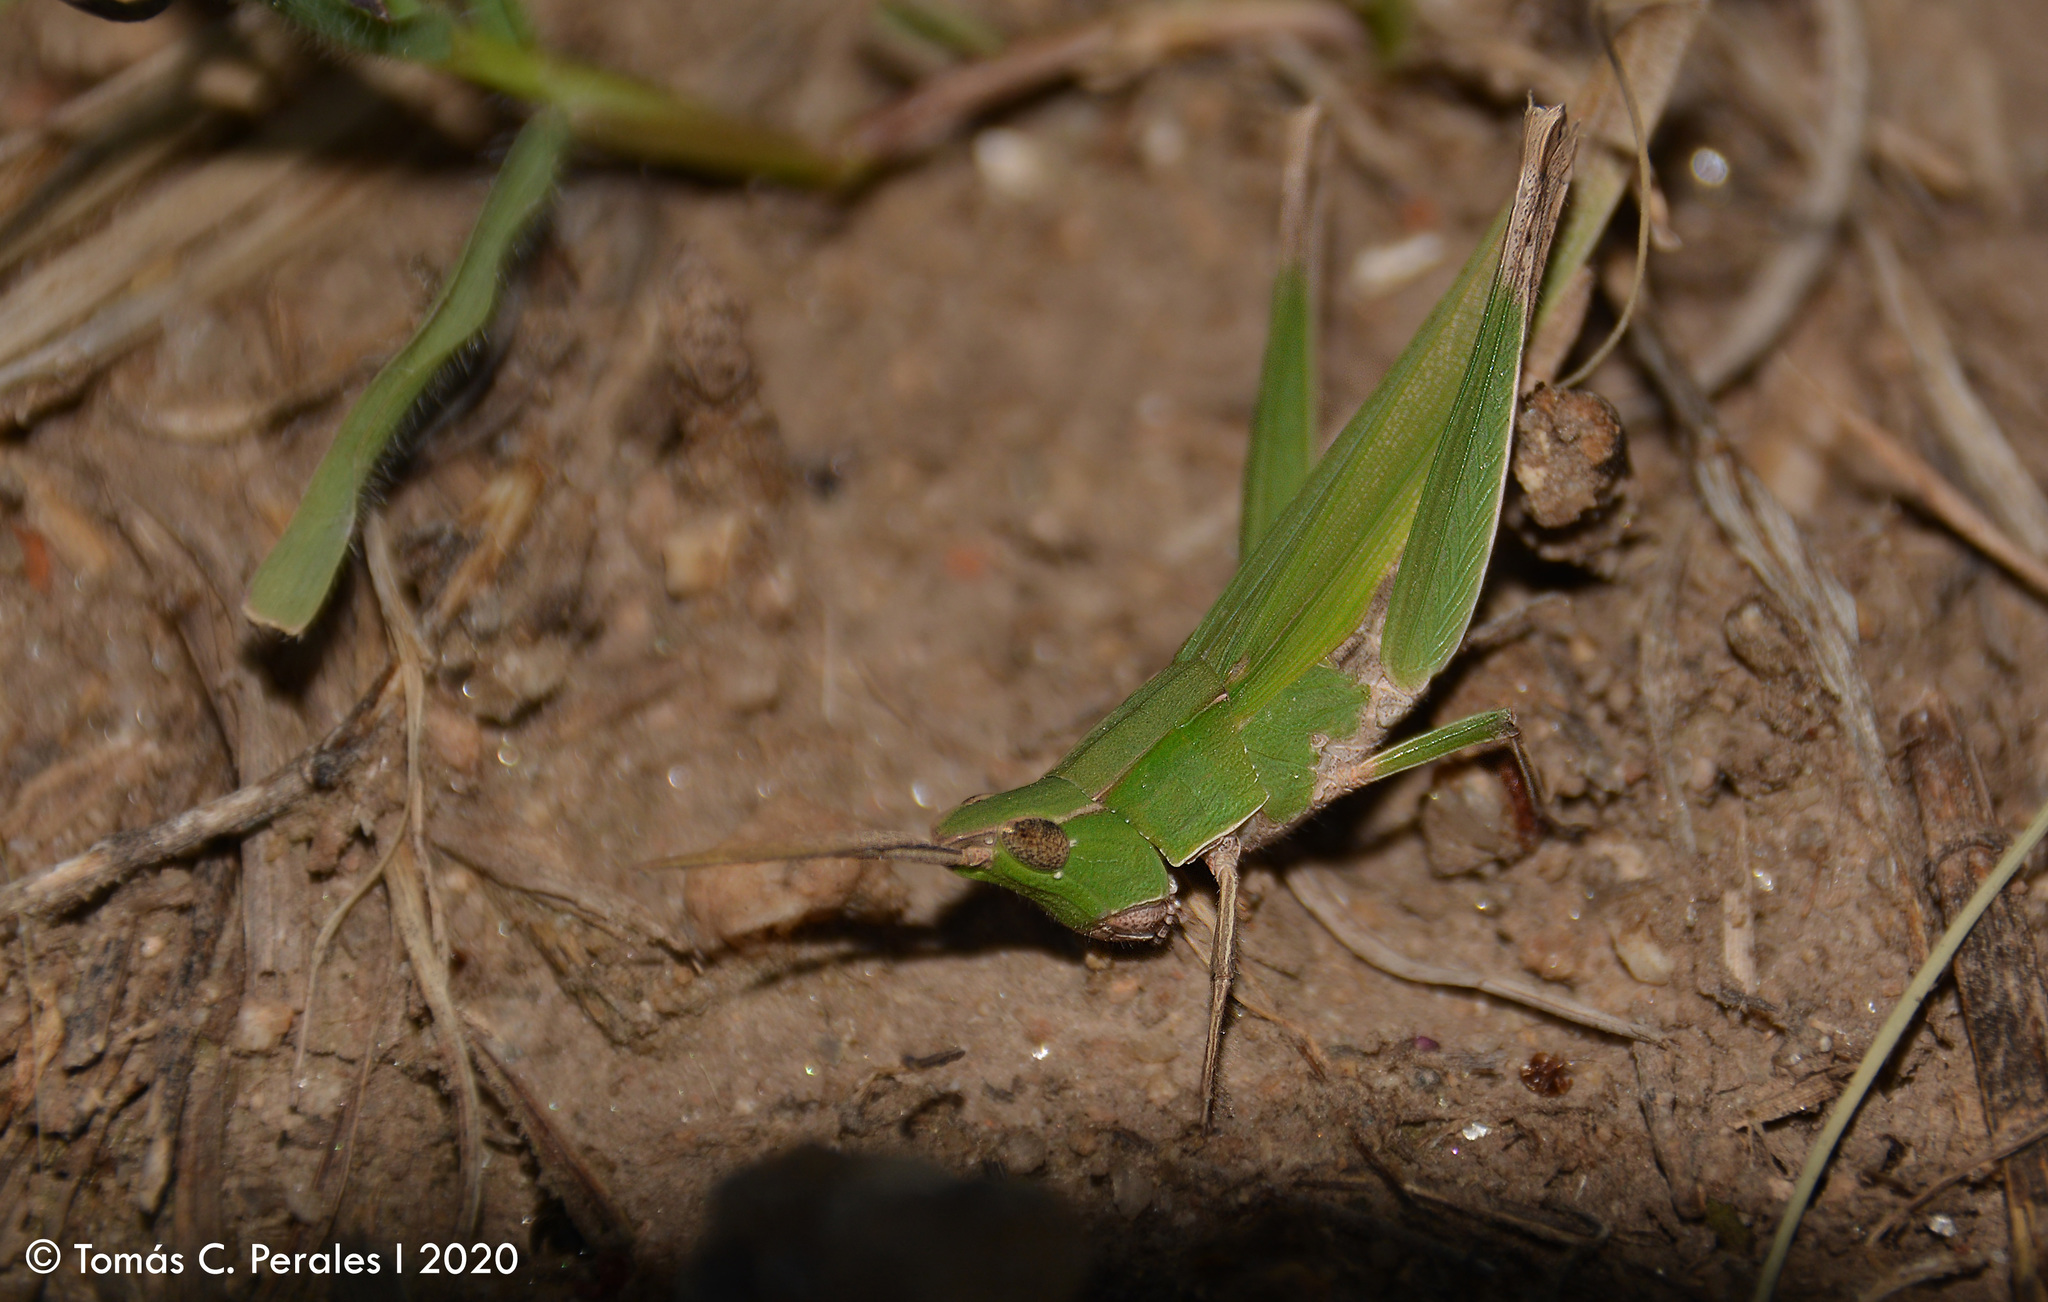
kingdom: Animalia
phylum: Arthropoda
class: Insecta
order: Orthoptera
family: Acrididae
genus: Allotruxalis
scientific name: Allotruxalis gracilis
